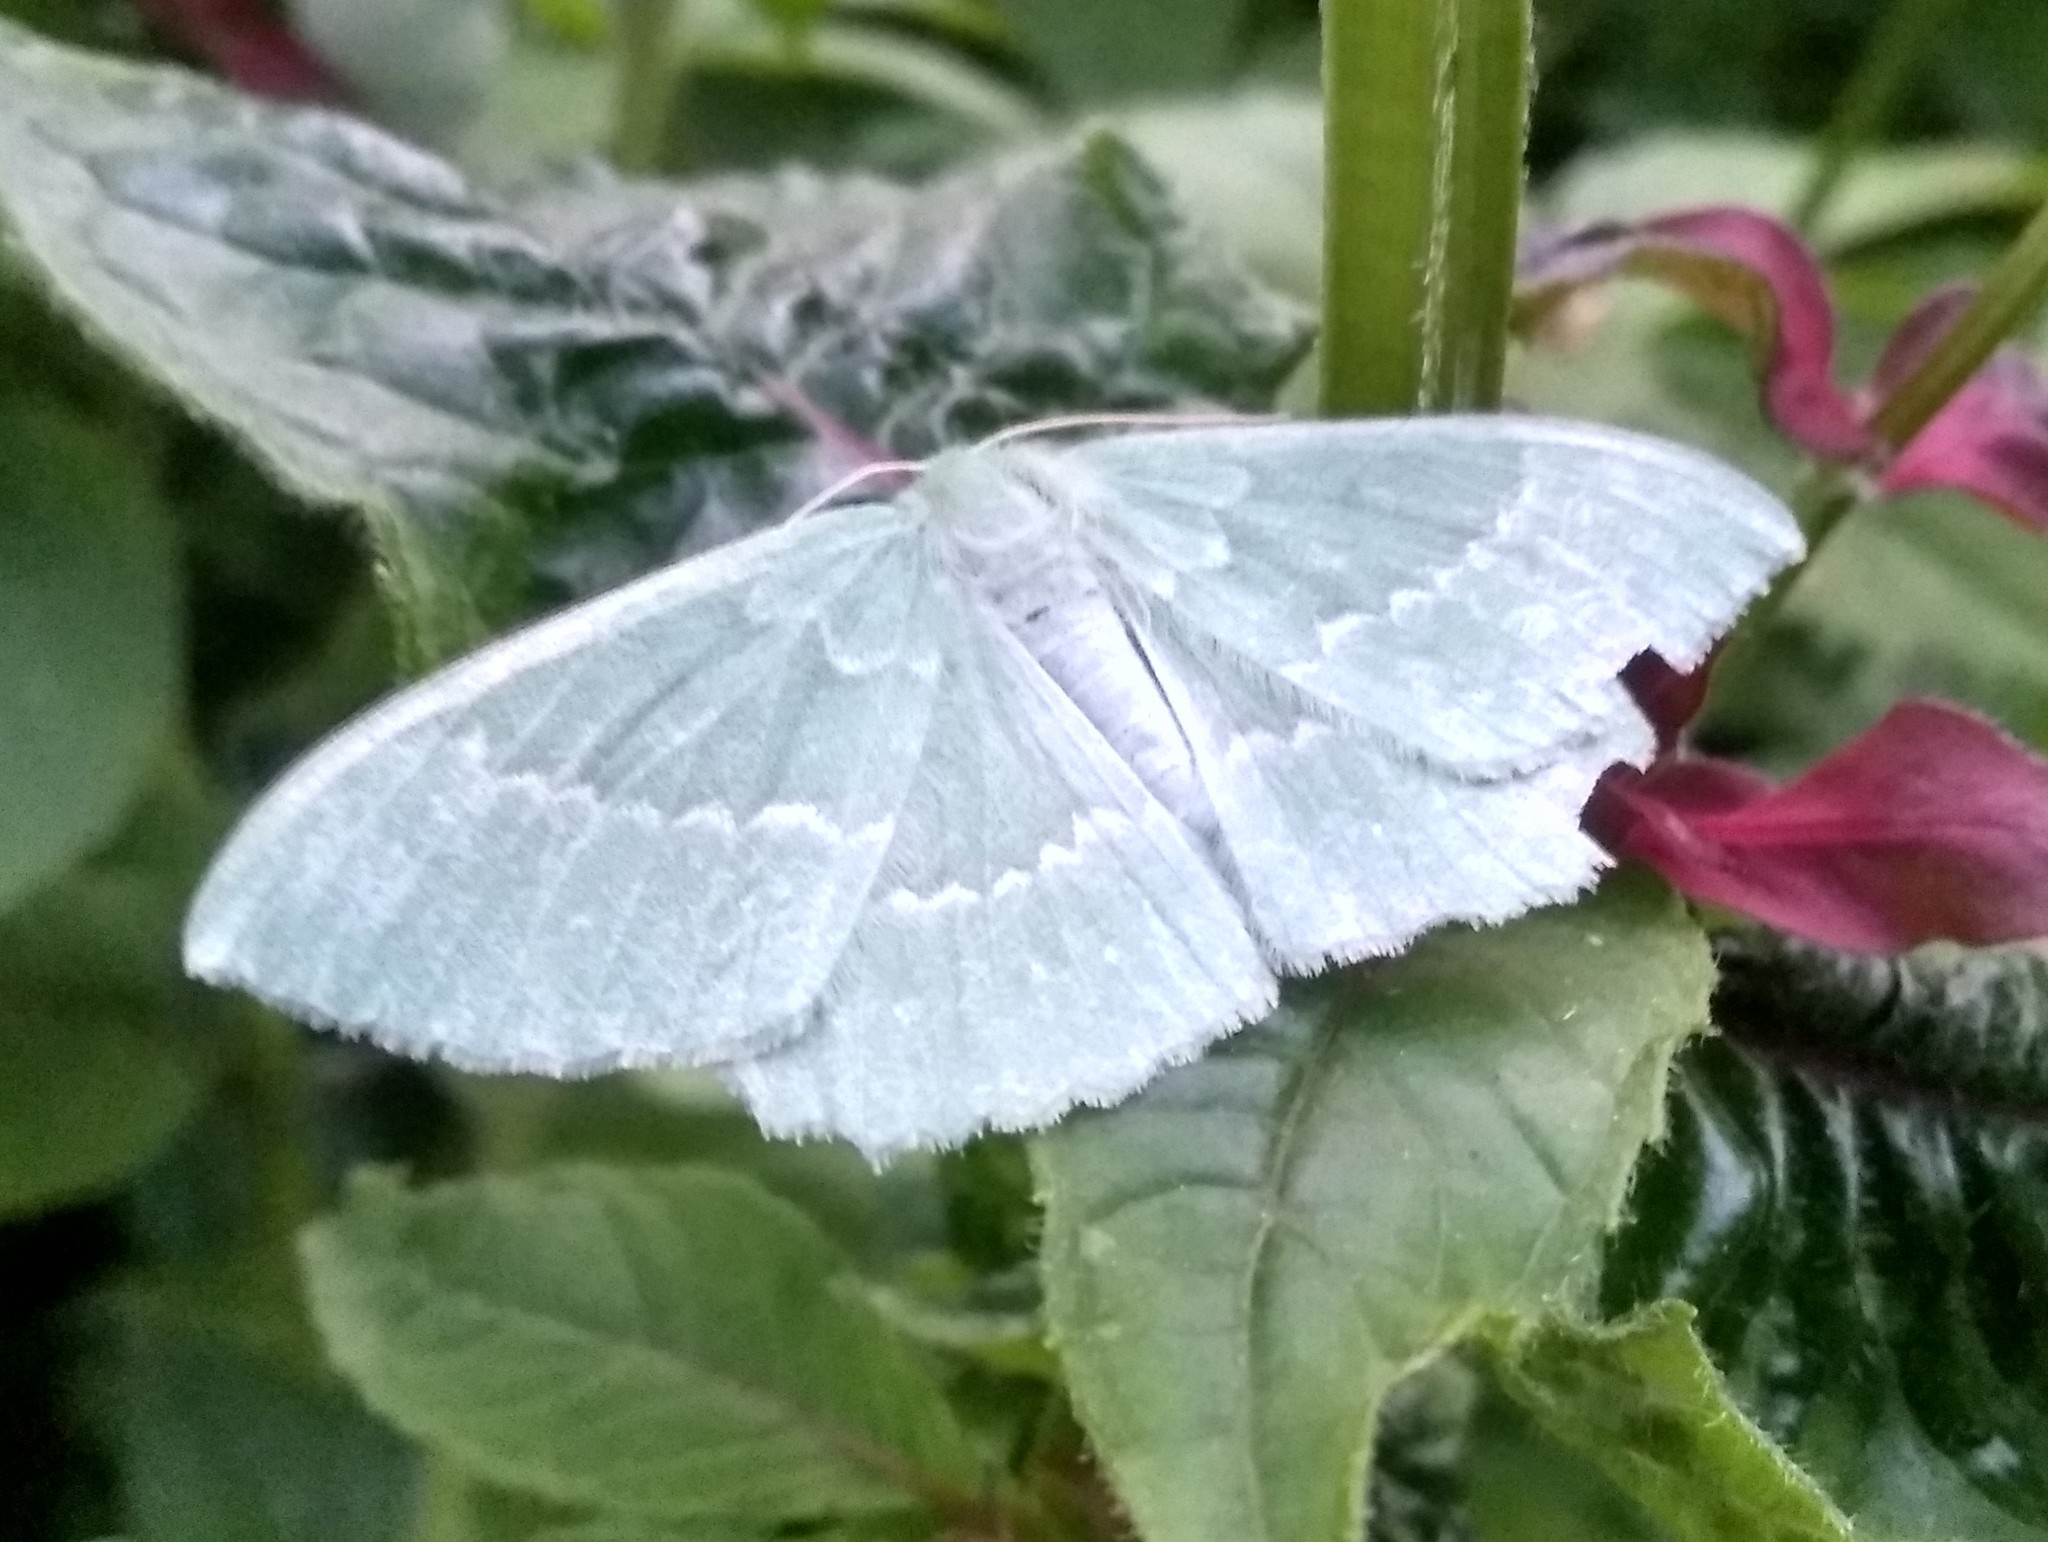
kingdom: Animalia
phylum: Arthropoda
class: Insecta
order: Lepidoptera
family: Geometridae
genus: Geometra
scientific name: Geometra papilionaria
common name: Large emerald
